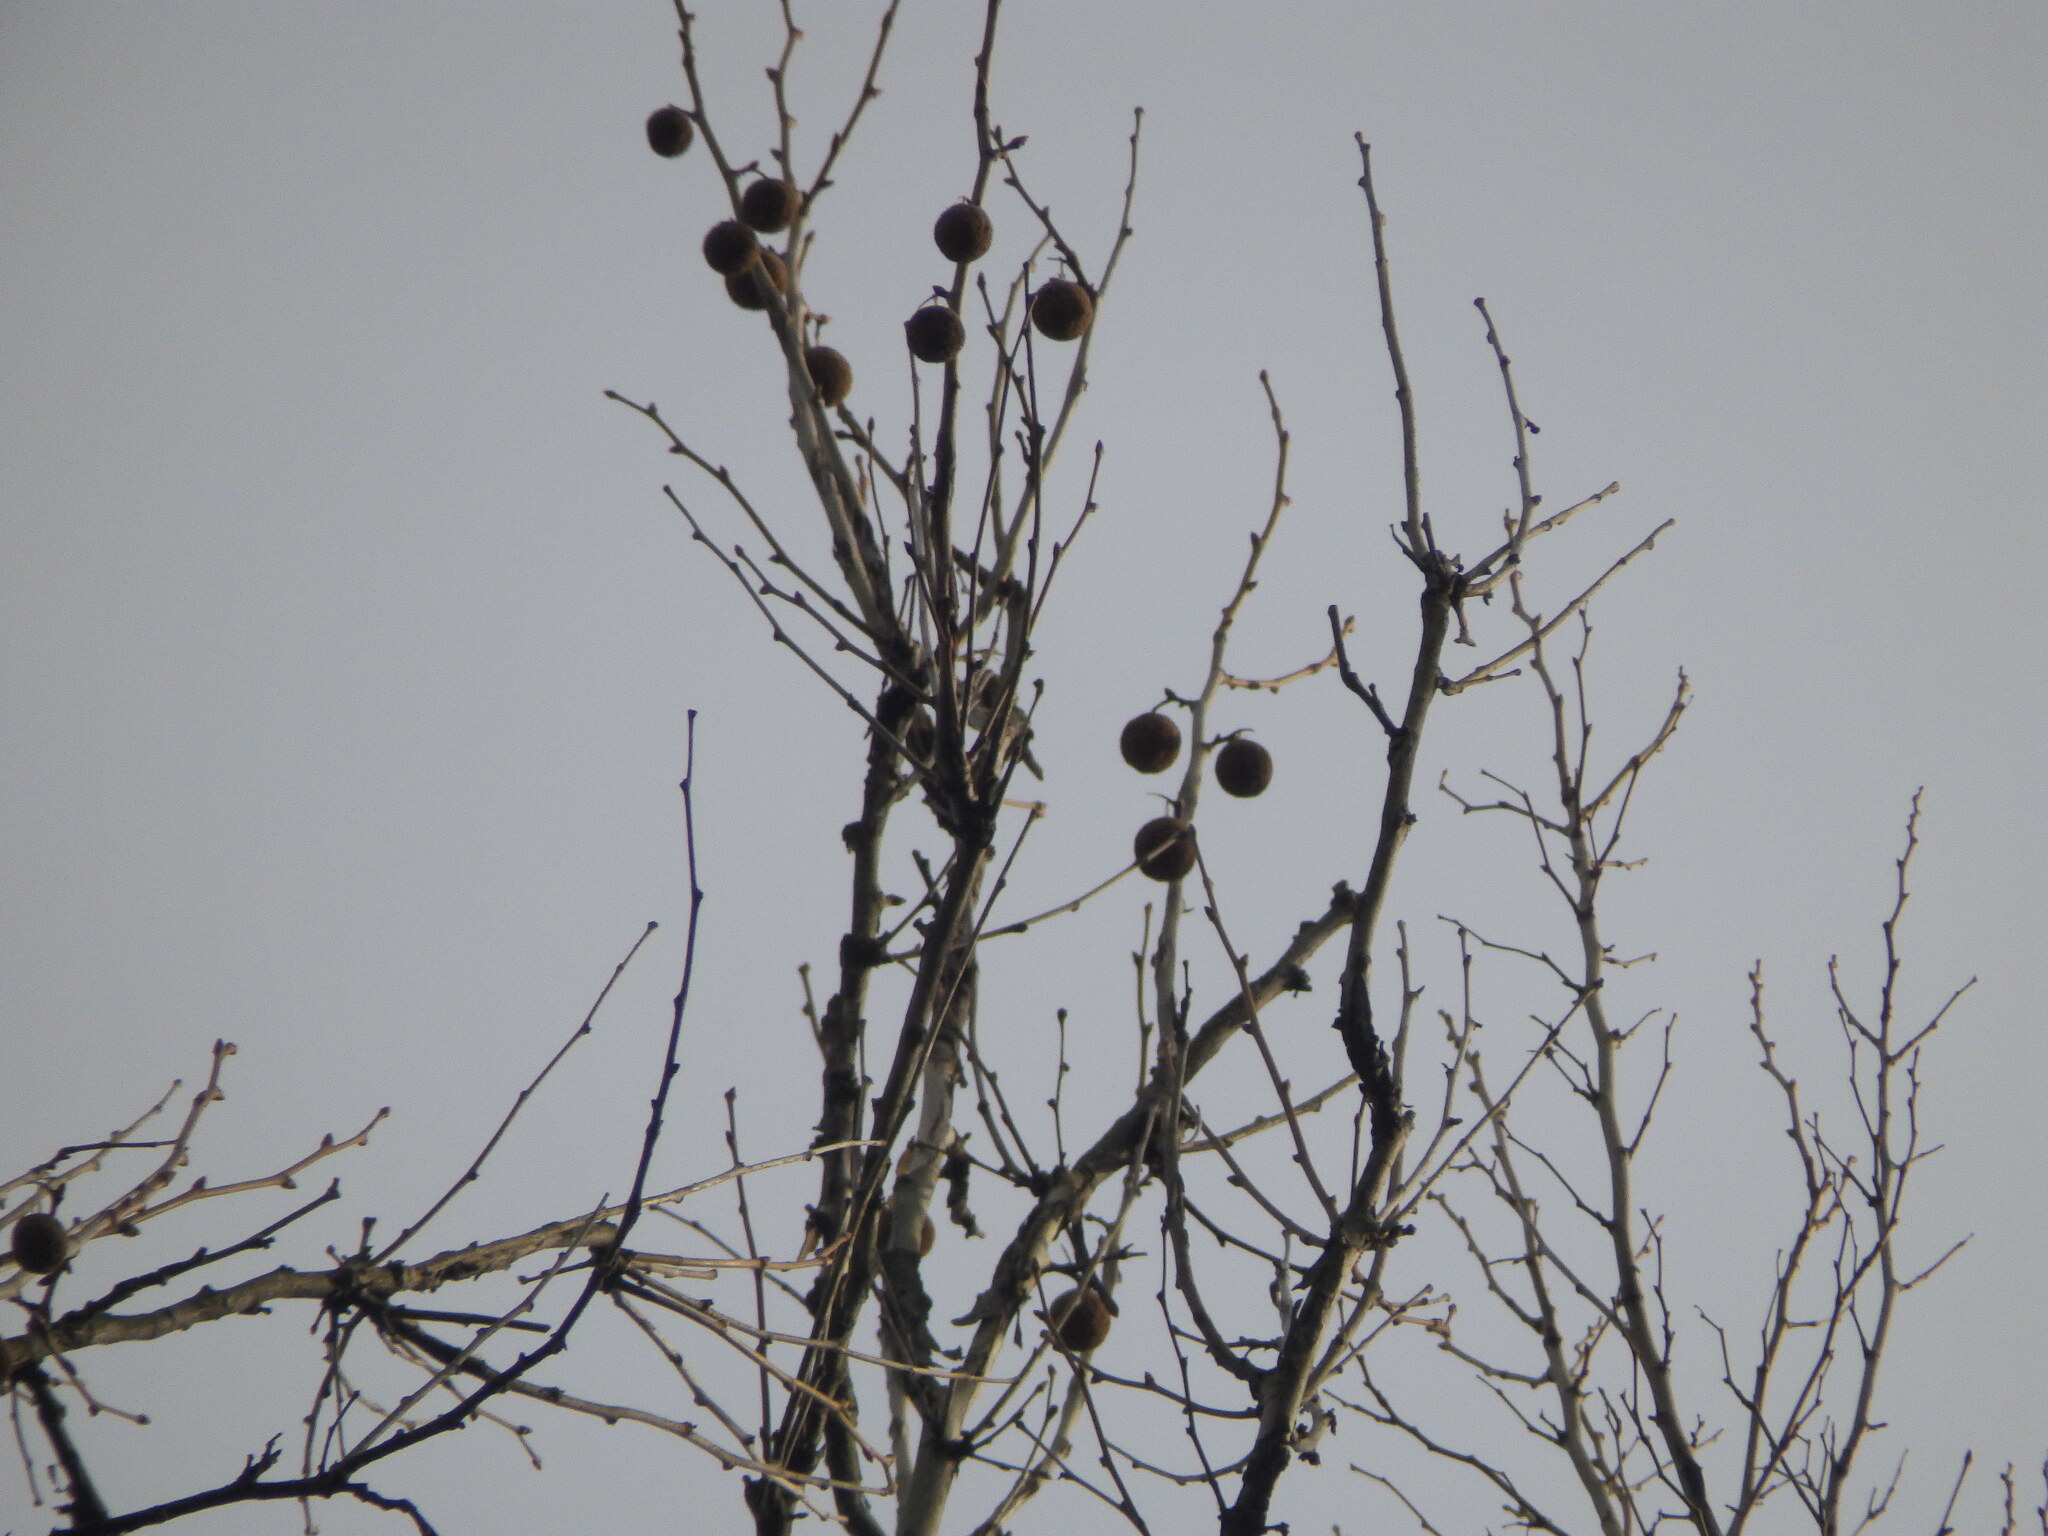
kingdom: Plantae
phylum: Tracheophyta
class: Magnoliopsida
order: Proteales
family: Platanaceae
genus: Platanus
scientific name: Platanus occidentalis
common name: American sycamore
